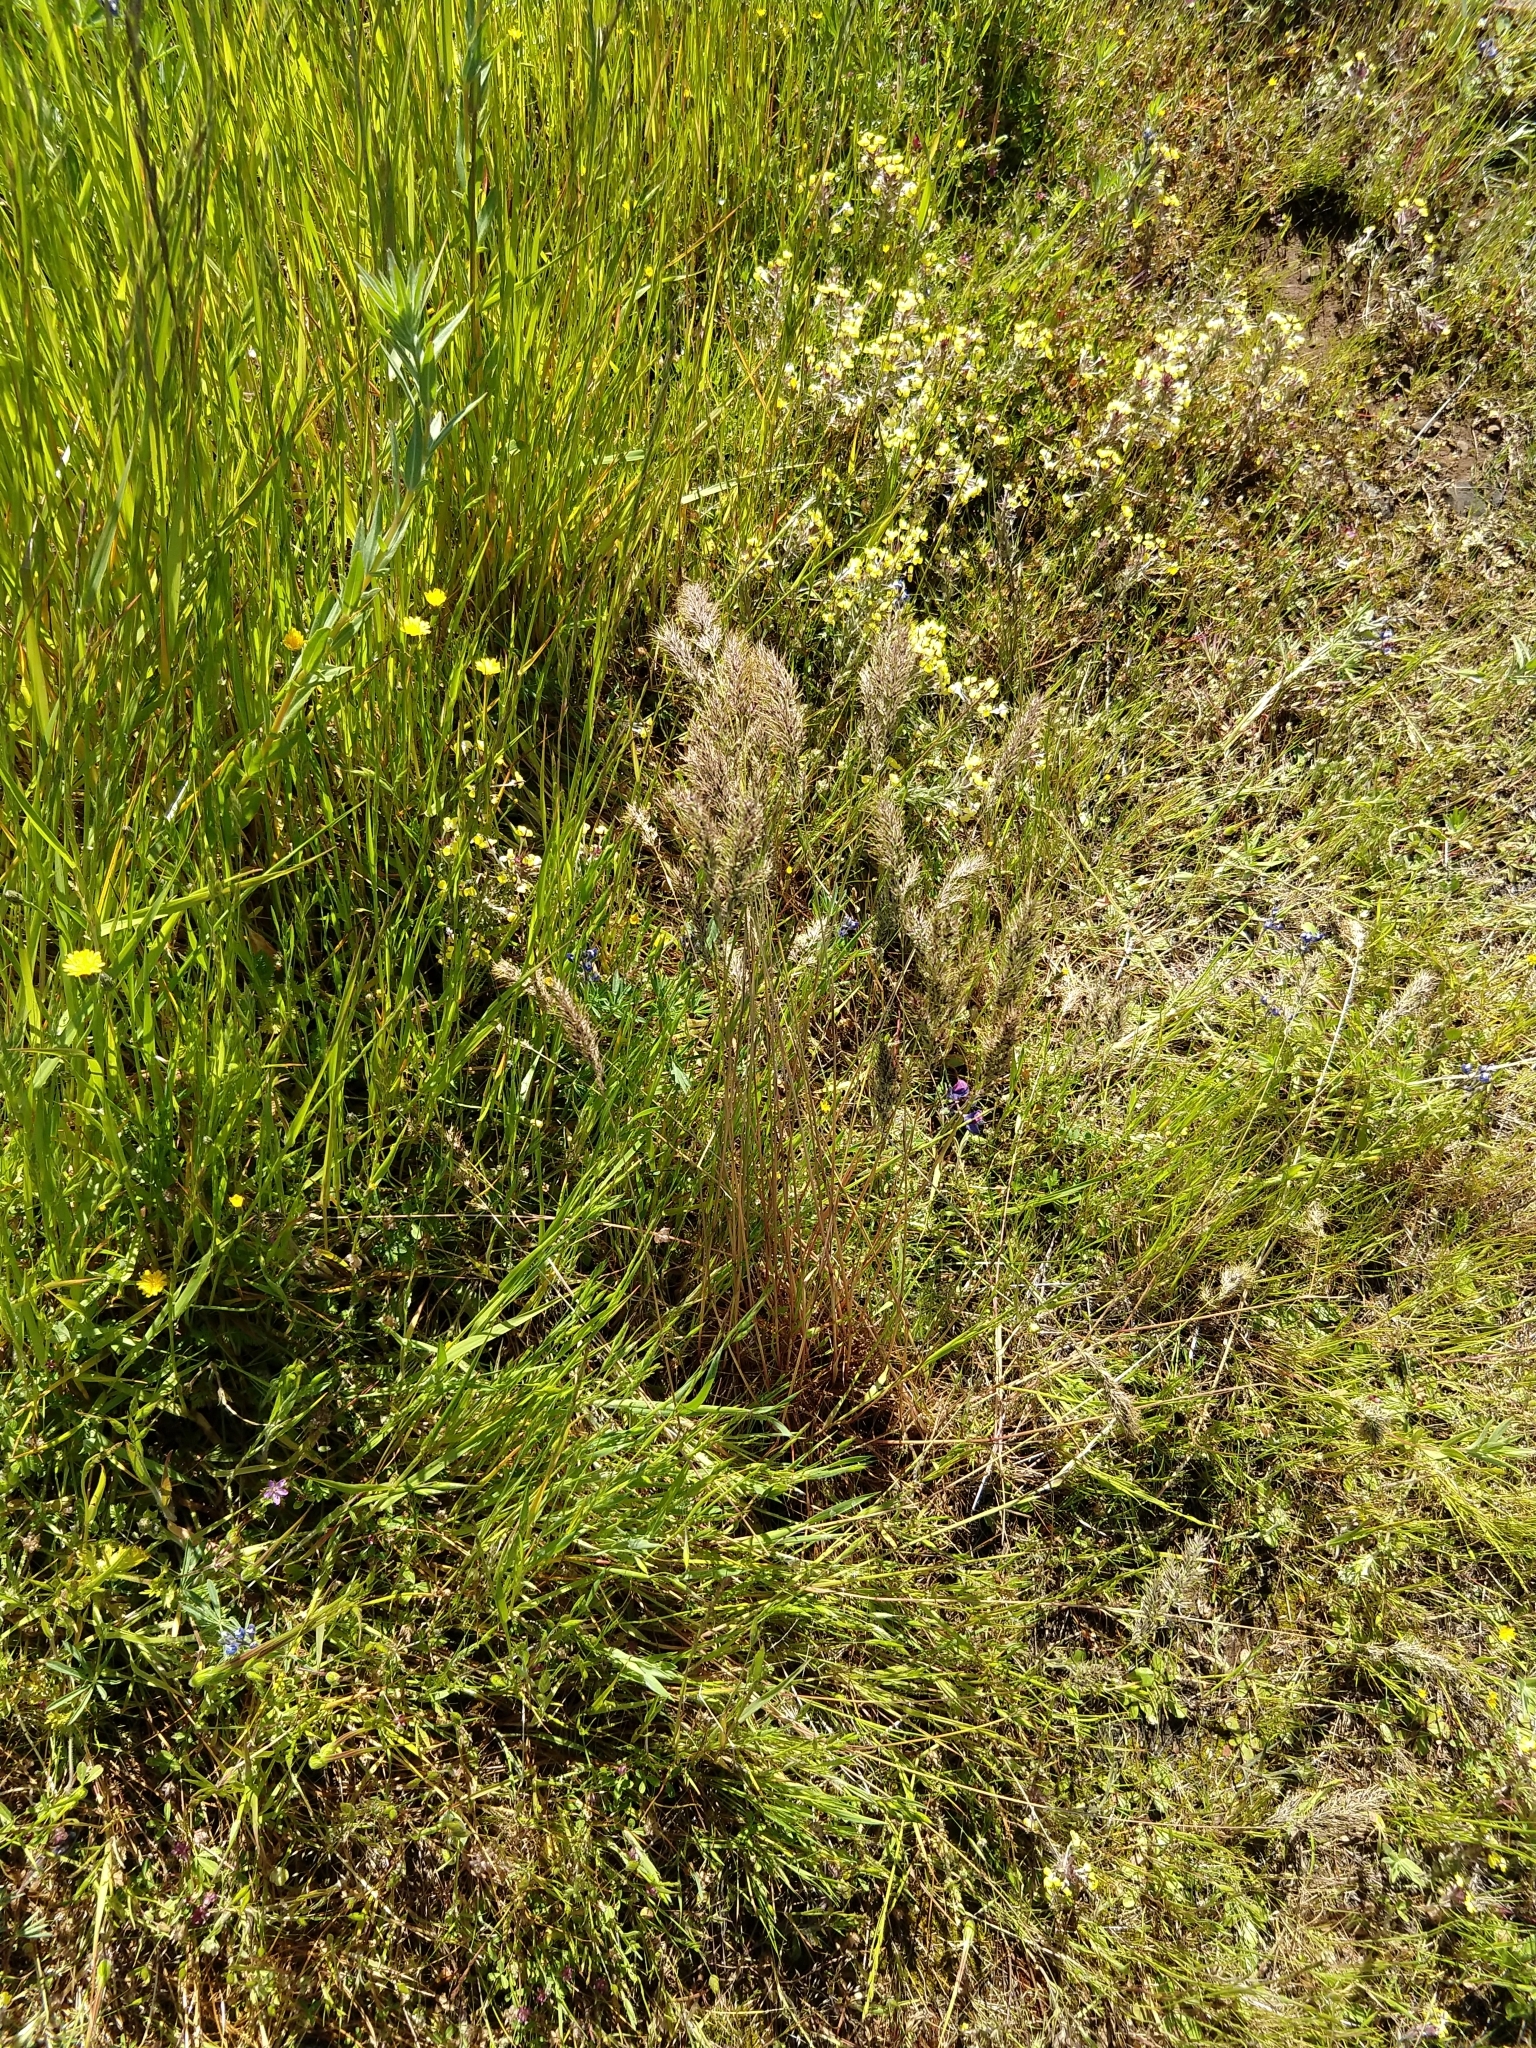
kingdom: Plantae
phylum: Tracheophyta
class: Liliopsida
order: Poales
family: Poaceae
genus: Poa
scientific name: Poa bulbosa
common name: Bulbous bluegrass
